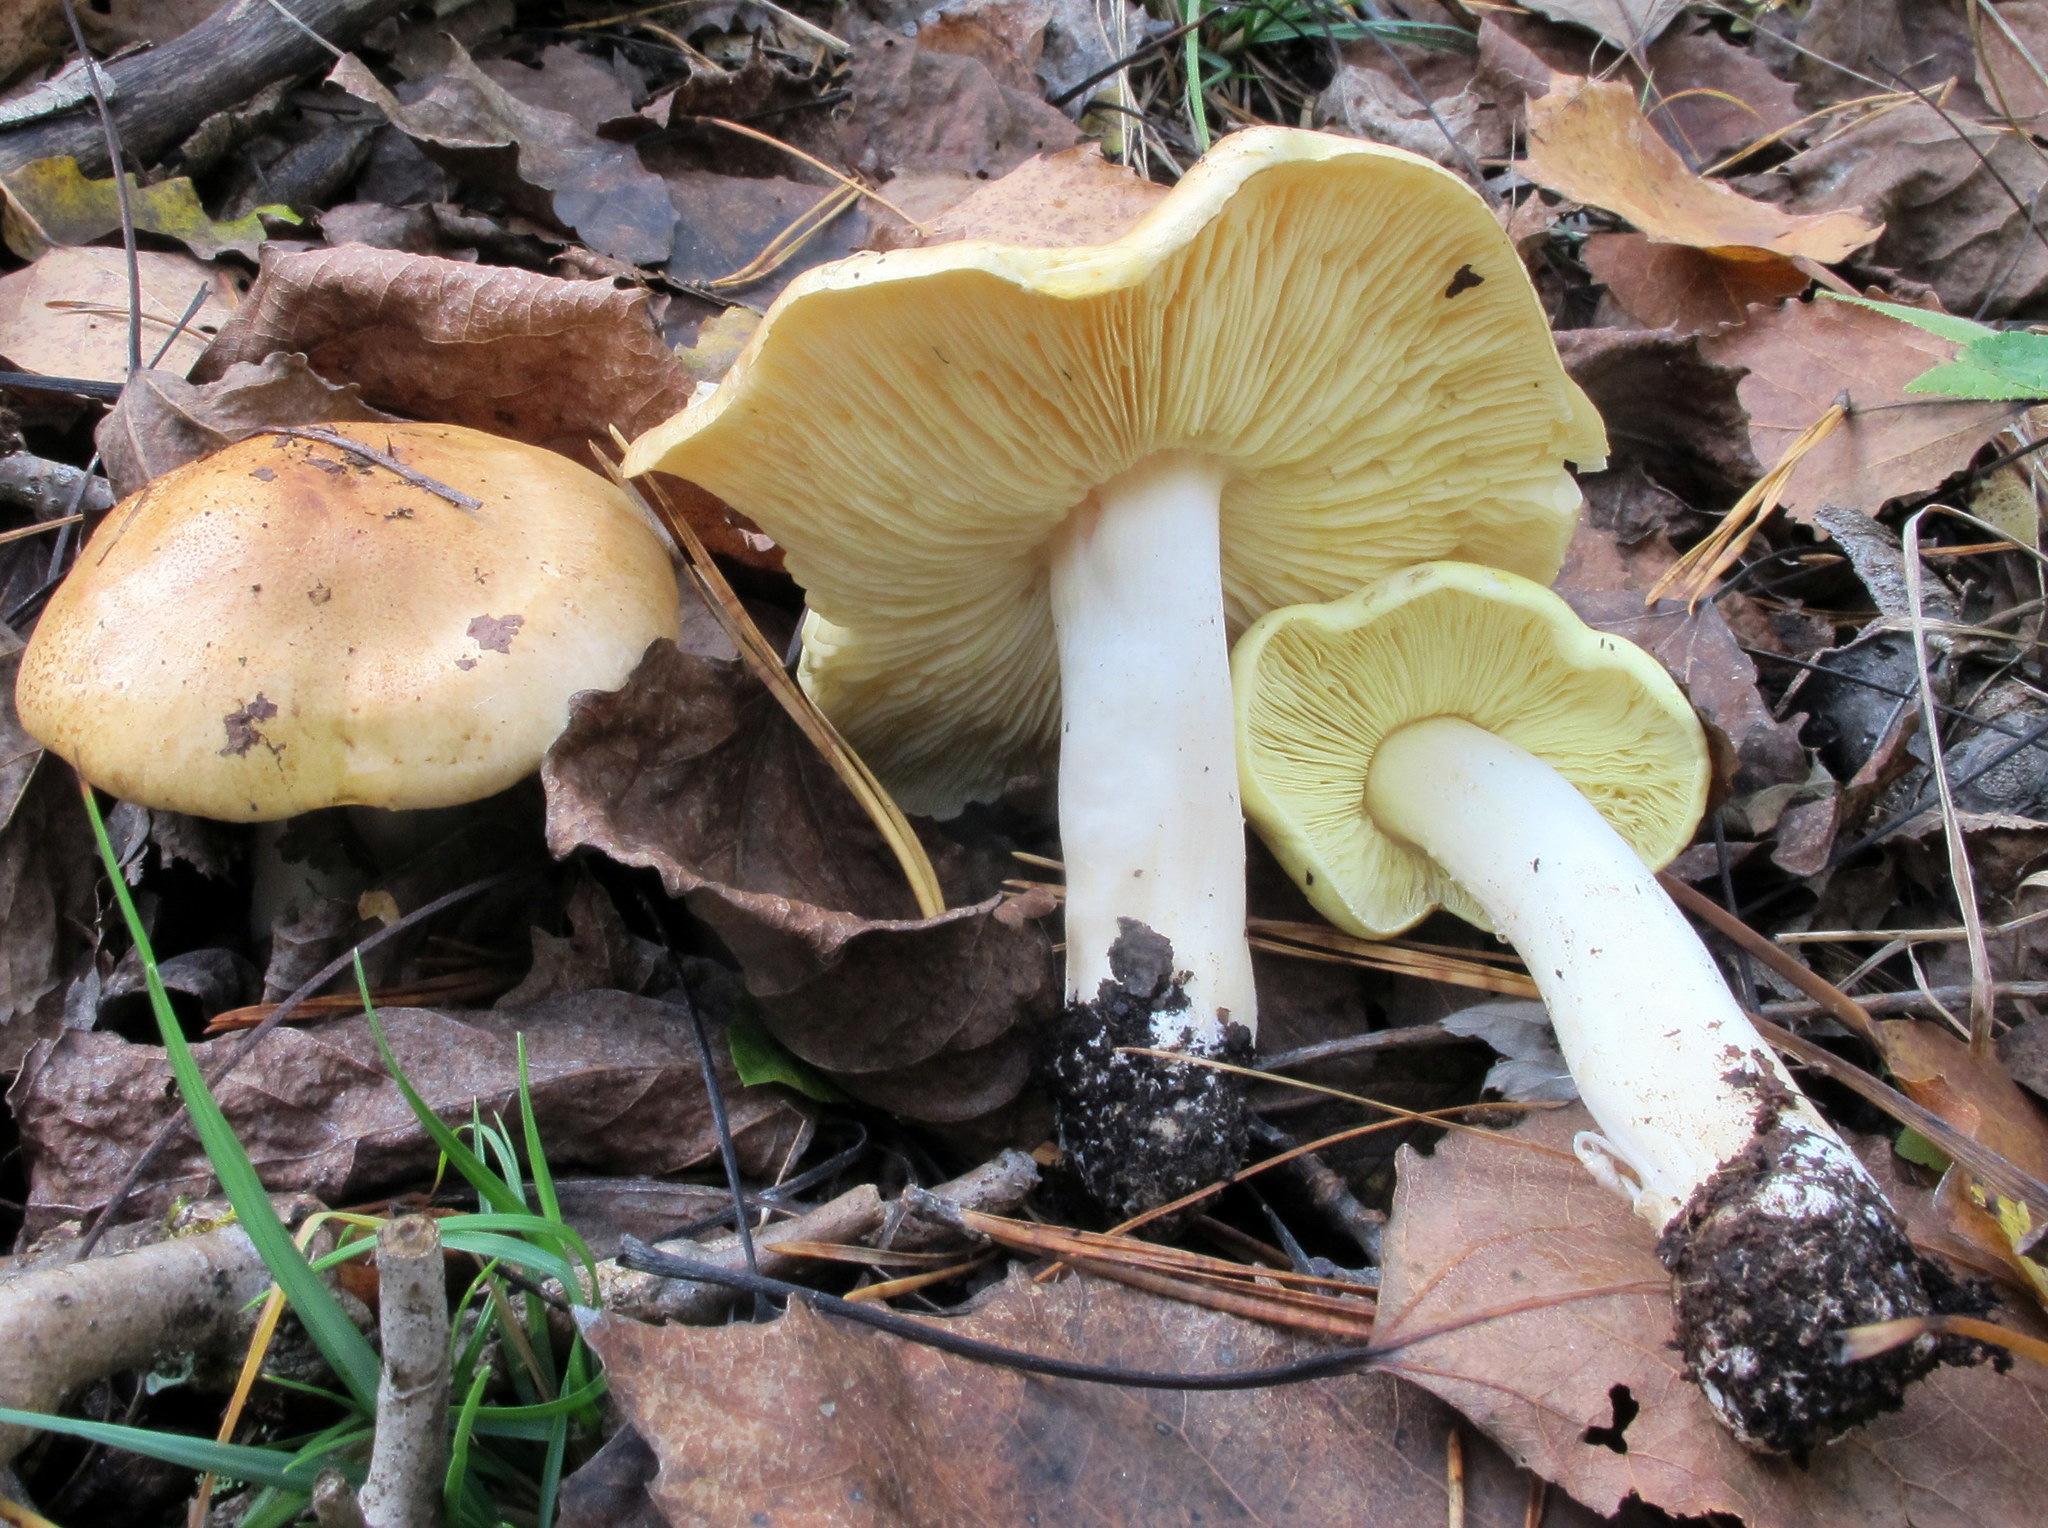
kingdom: Fungi
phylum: Basidiomycota
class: Agaricomycetes
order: Agaricales
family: Tricholomataceae
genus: Tricholoma
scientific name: Tricholoma equestre
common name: Yellow knight
